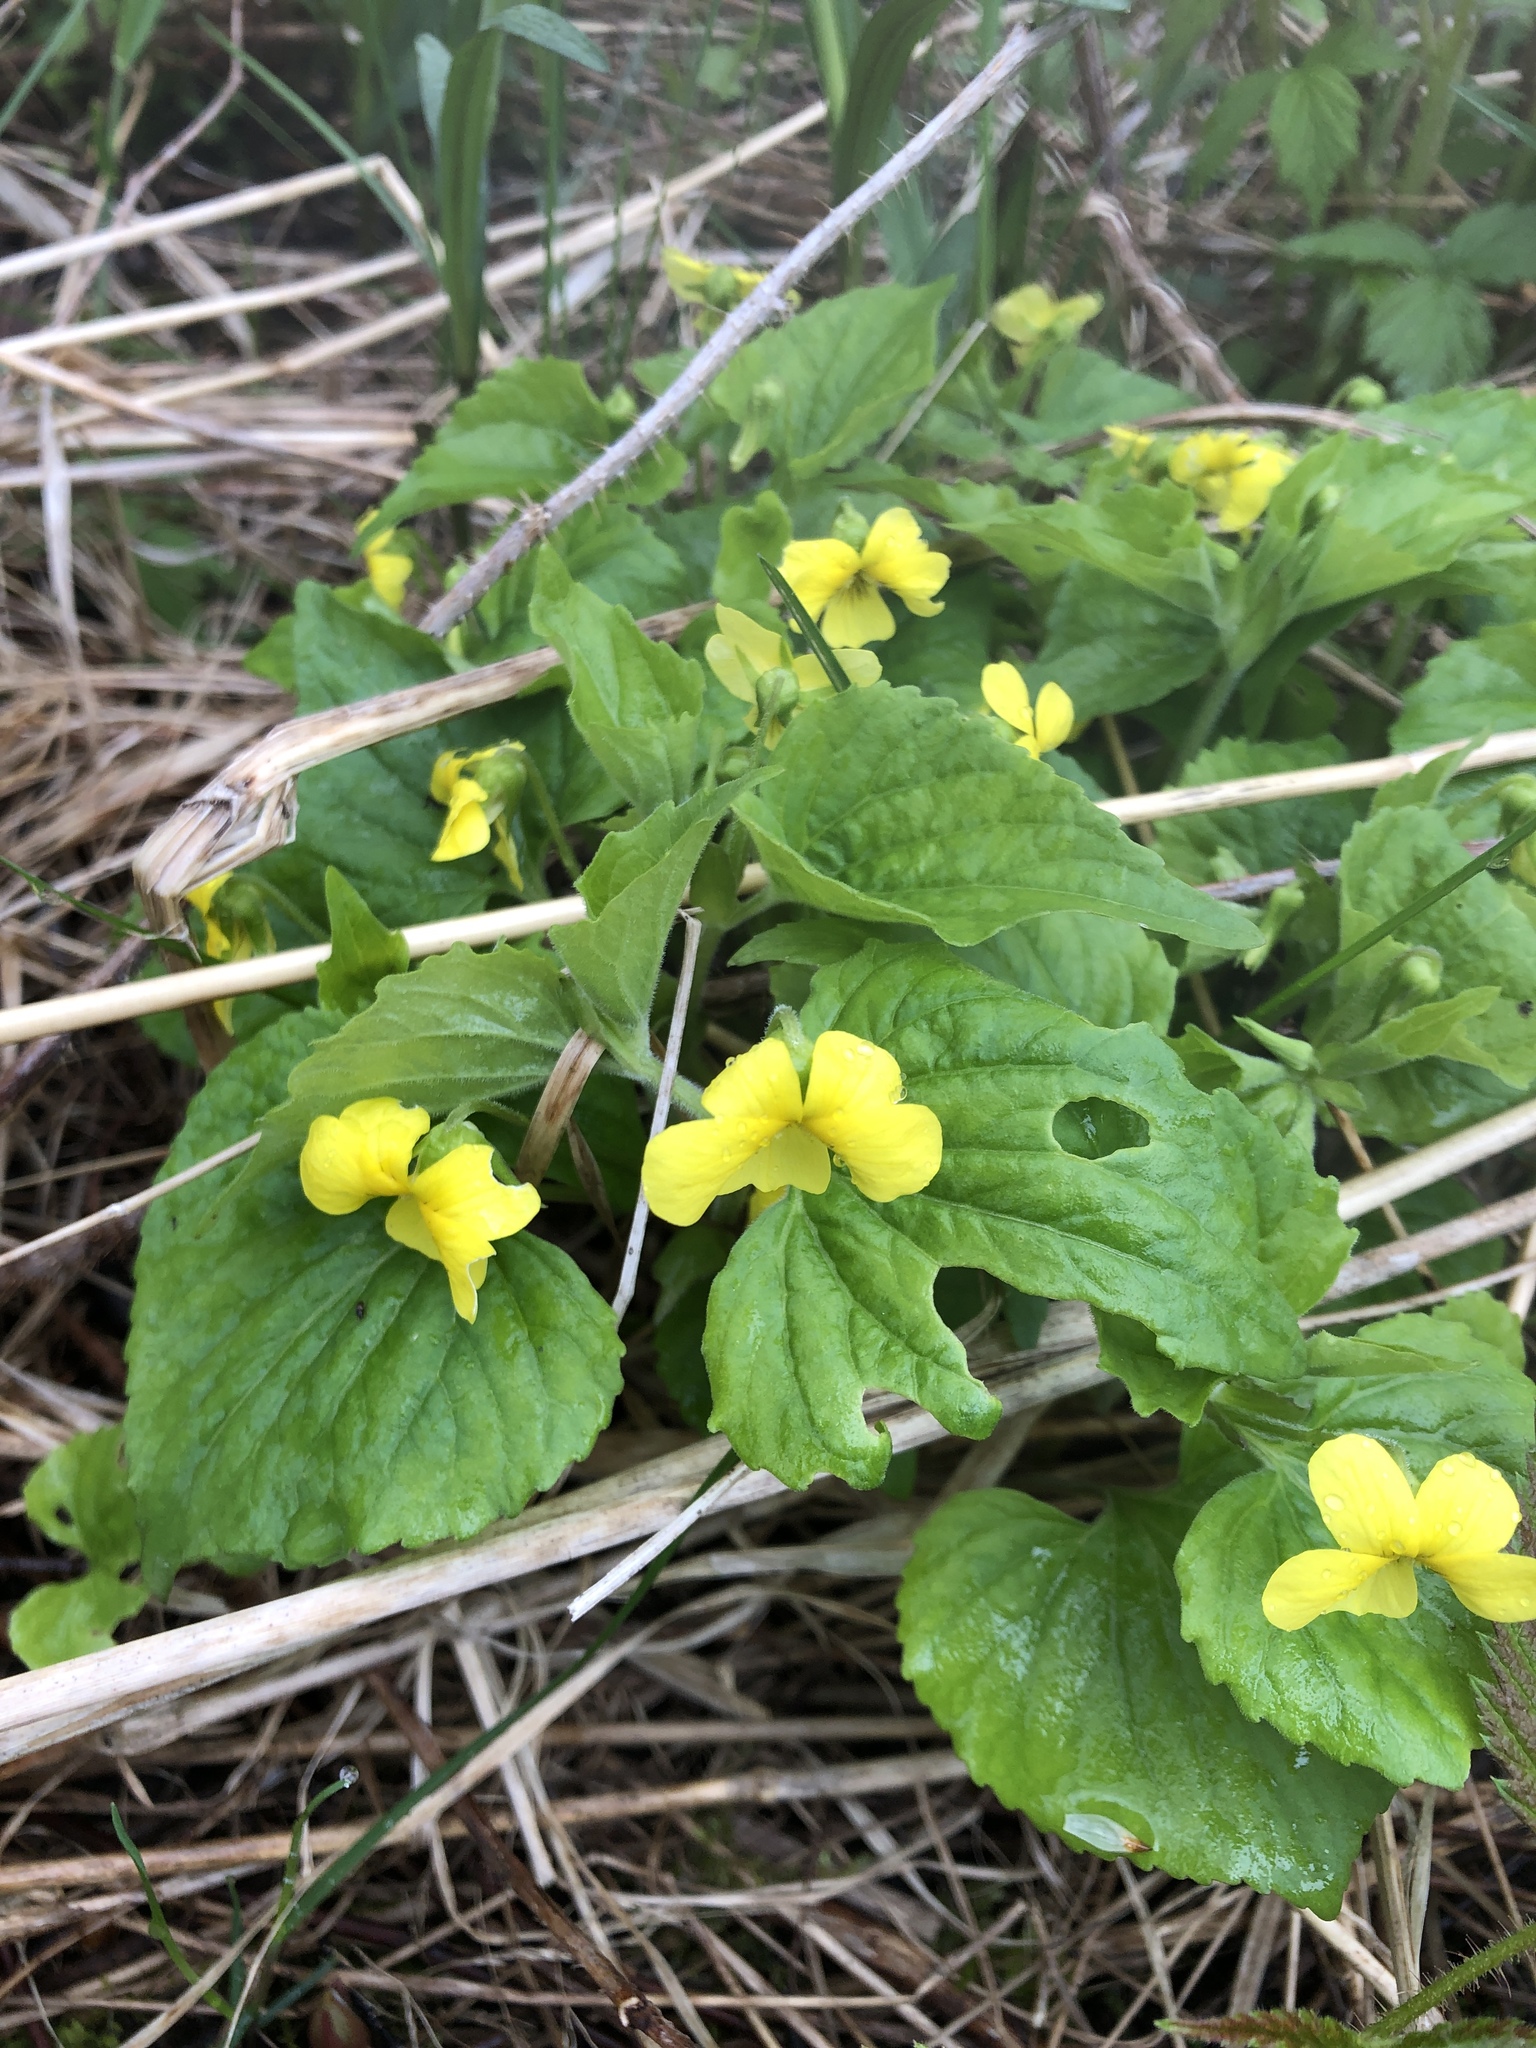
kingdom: Plantae
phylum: Tracheophyta
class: Magnoliopsida
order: Malpighiales
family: Violaceae
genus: Viola
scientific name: Viola eriocarpa
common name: Smooth yellow violet
